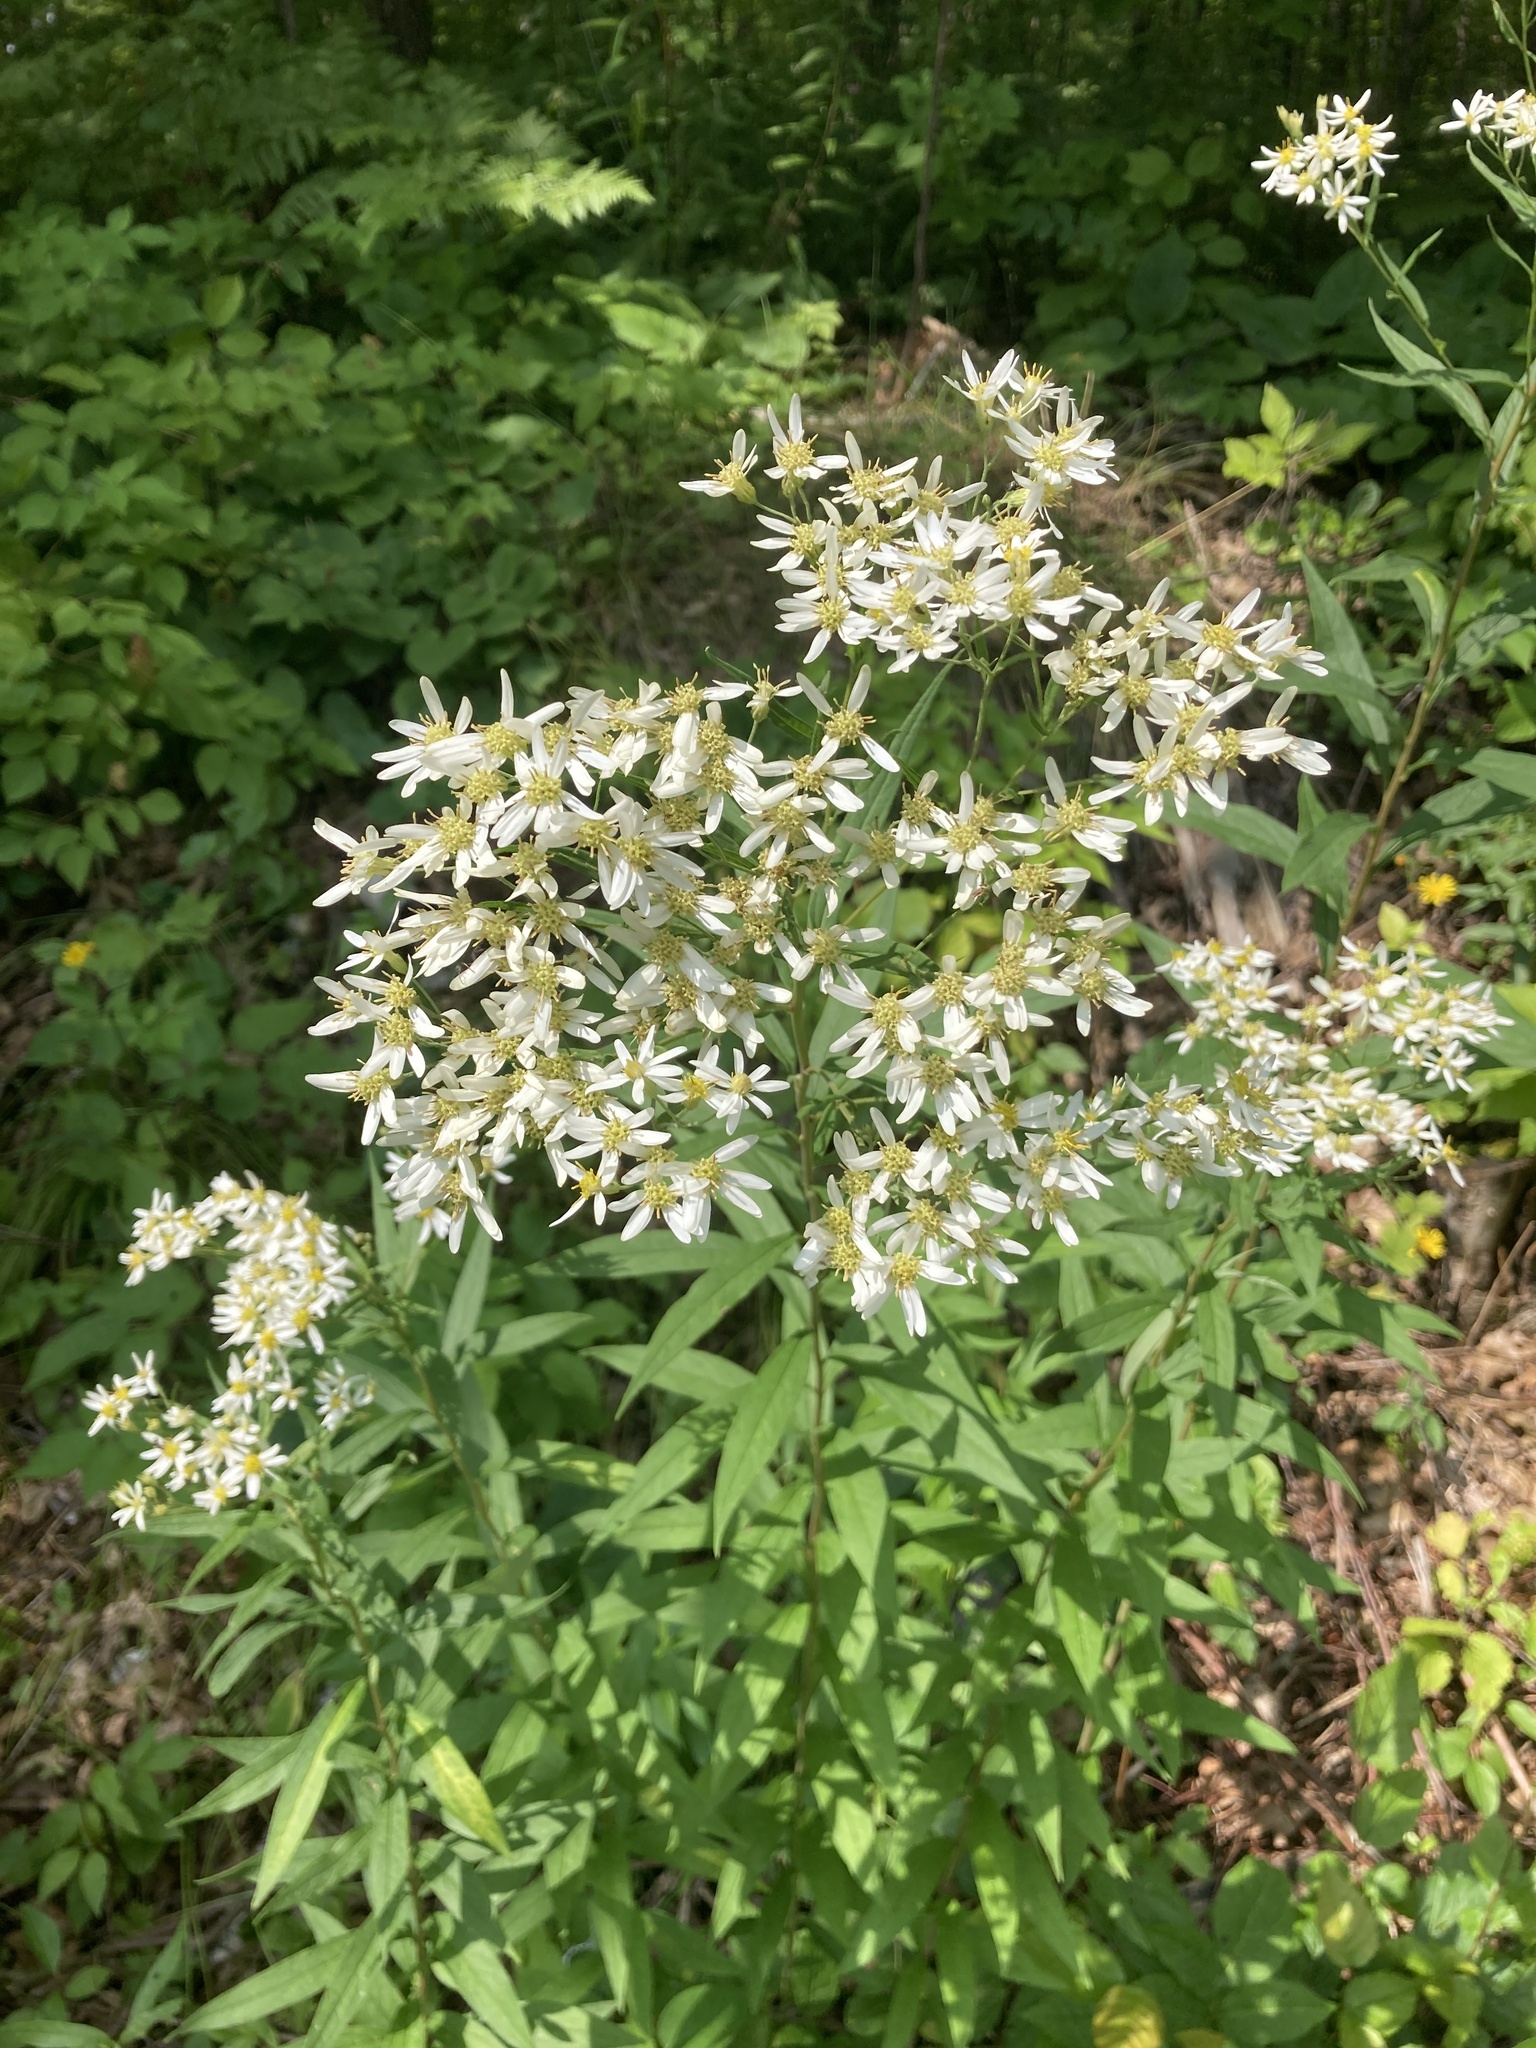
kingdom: Plantae
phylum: Tracheophyta
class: Magnoliopsida
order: Asterales
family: Asteraceae
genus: Doellingeria
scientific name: Doellingeria umbellata
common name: Flat-top white aster
